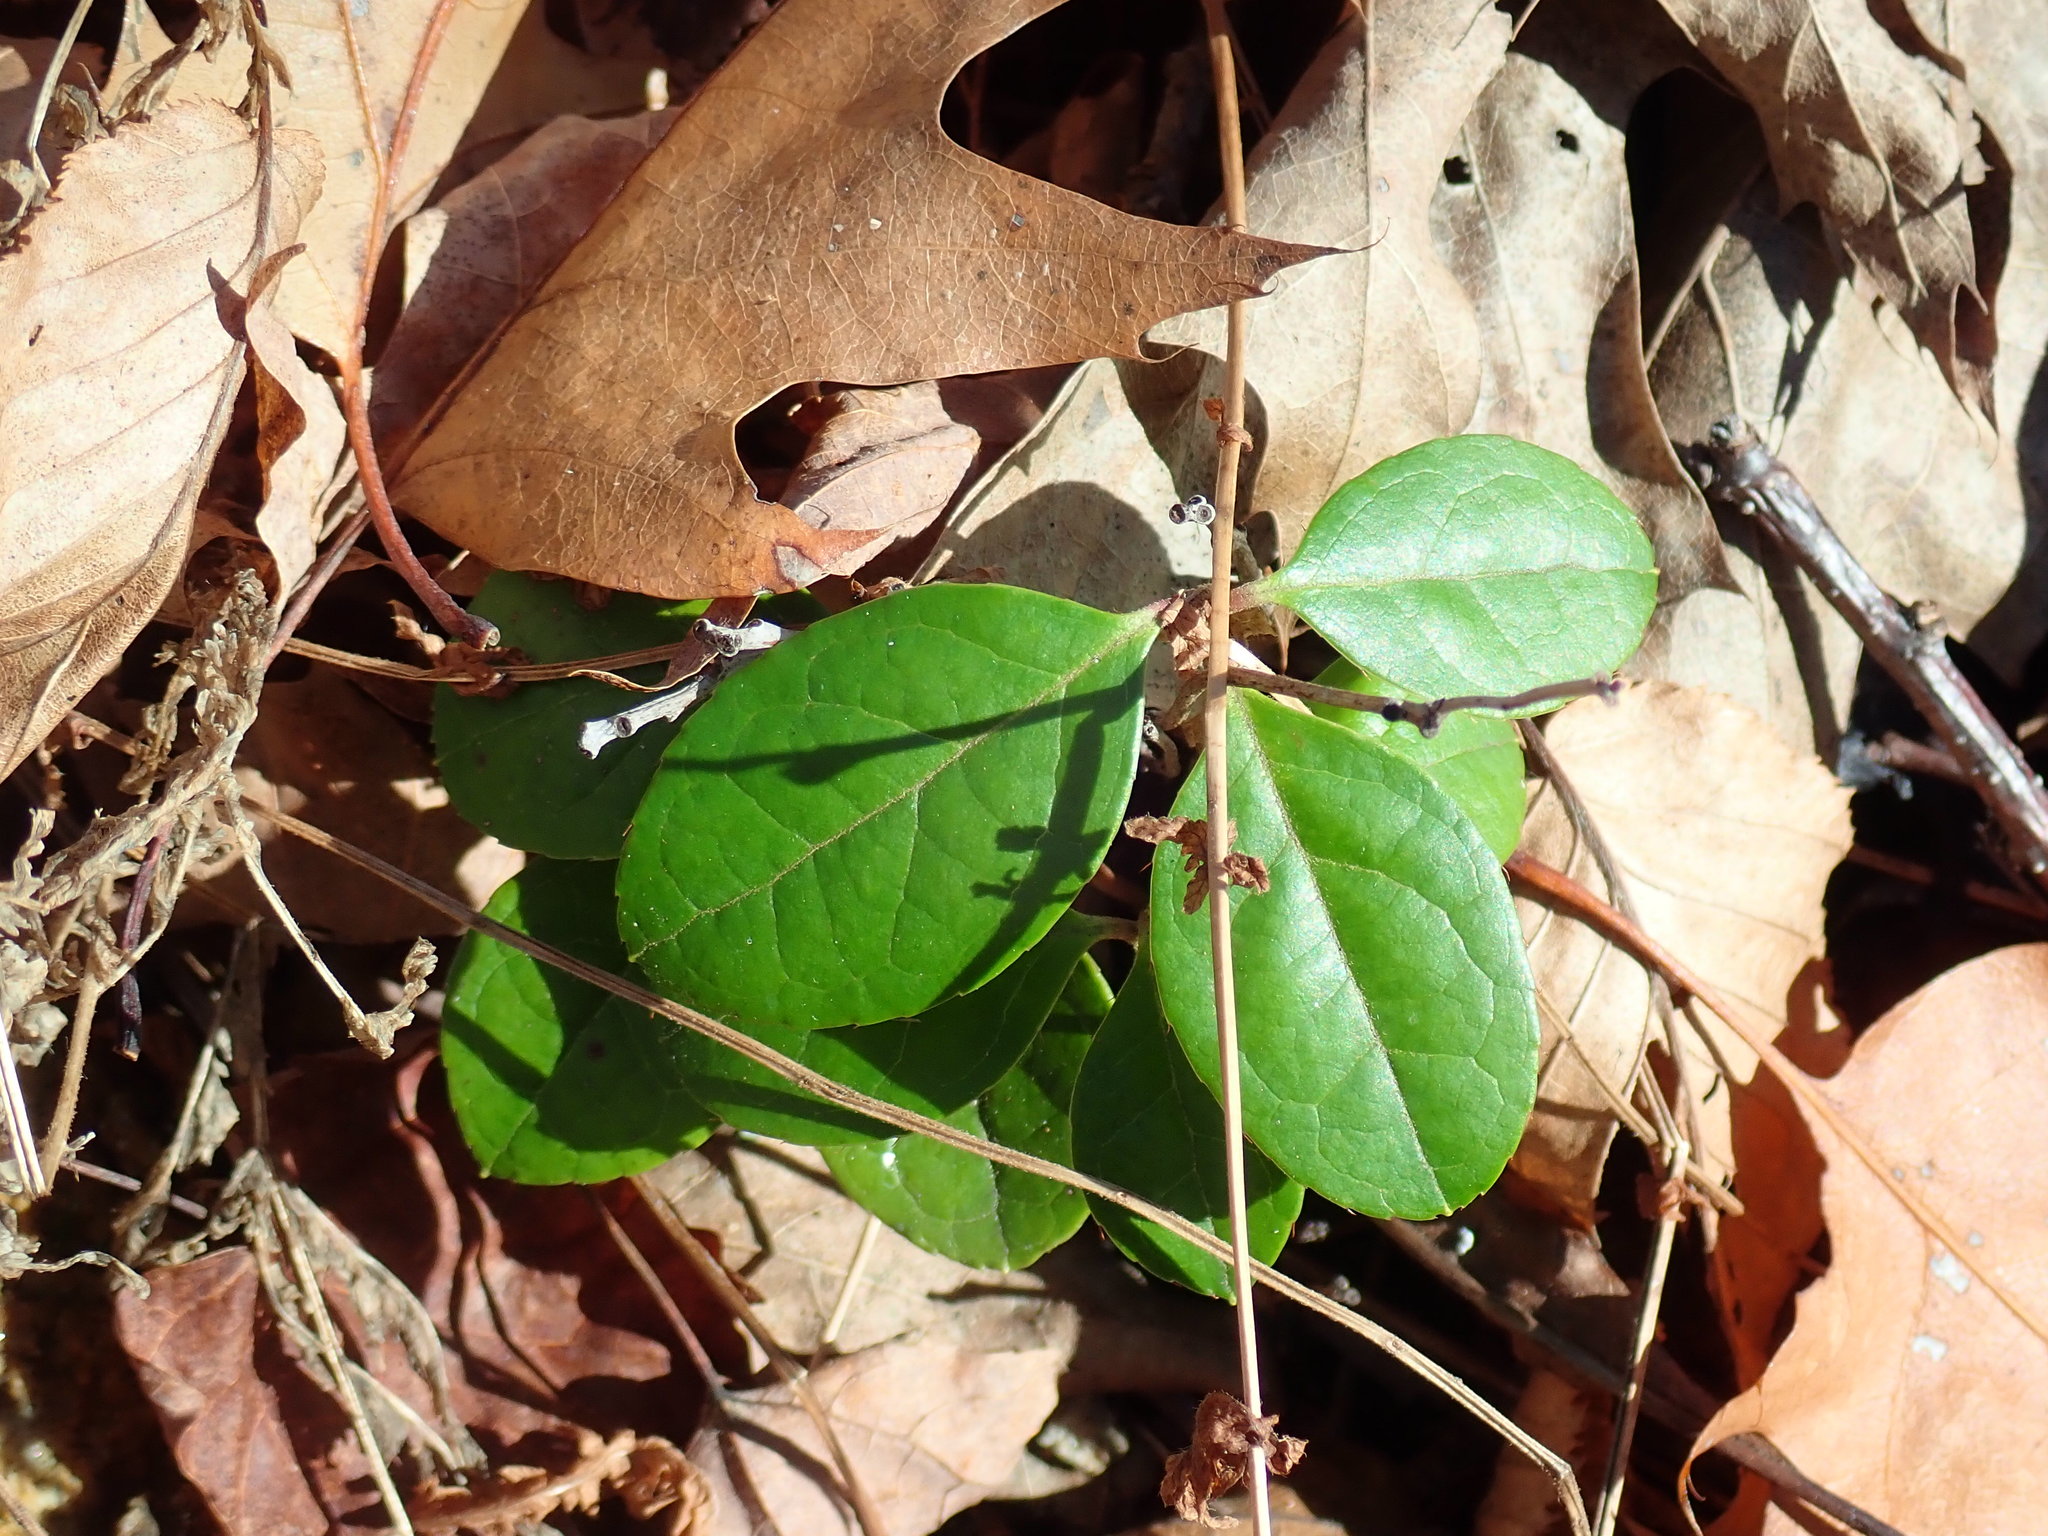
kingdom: Plantae
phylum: Tracheophyta
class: Magnoliopsida
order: Ericales
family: Ericaceae
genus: Gaultheria
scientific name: Gaultheria procumbens
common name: Checkerberry
